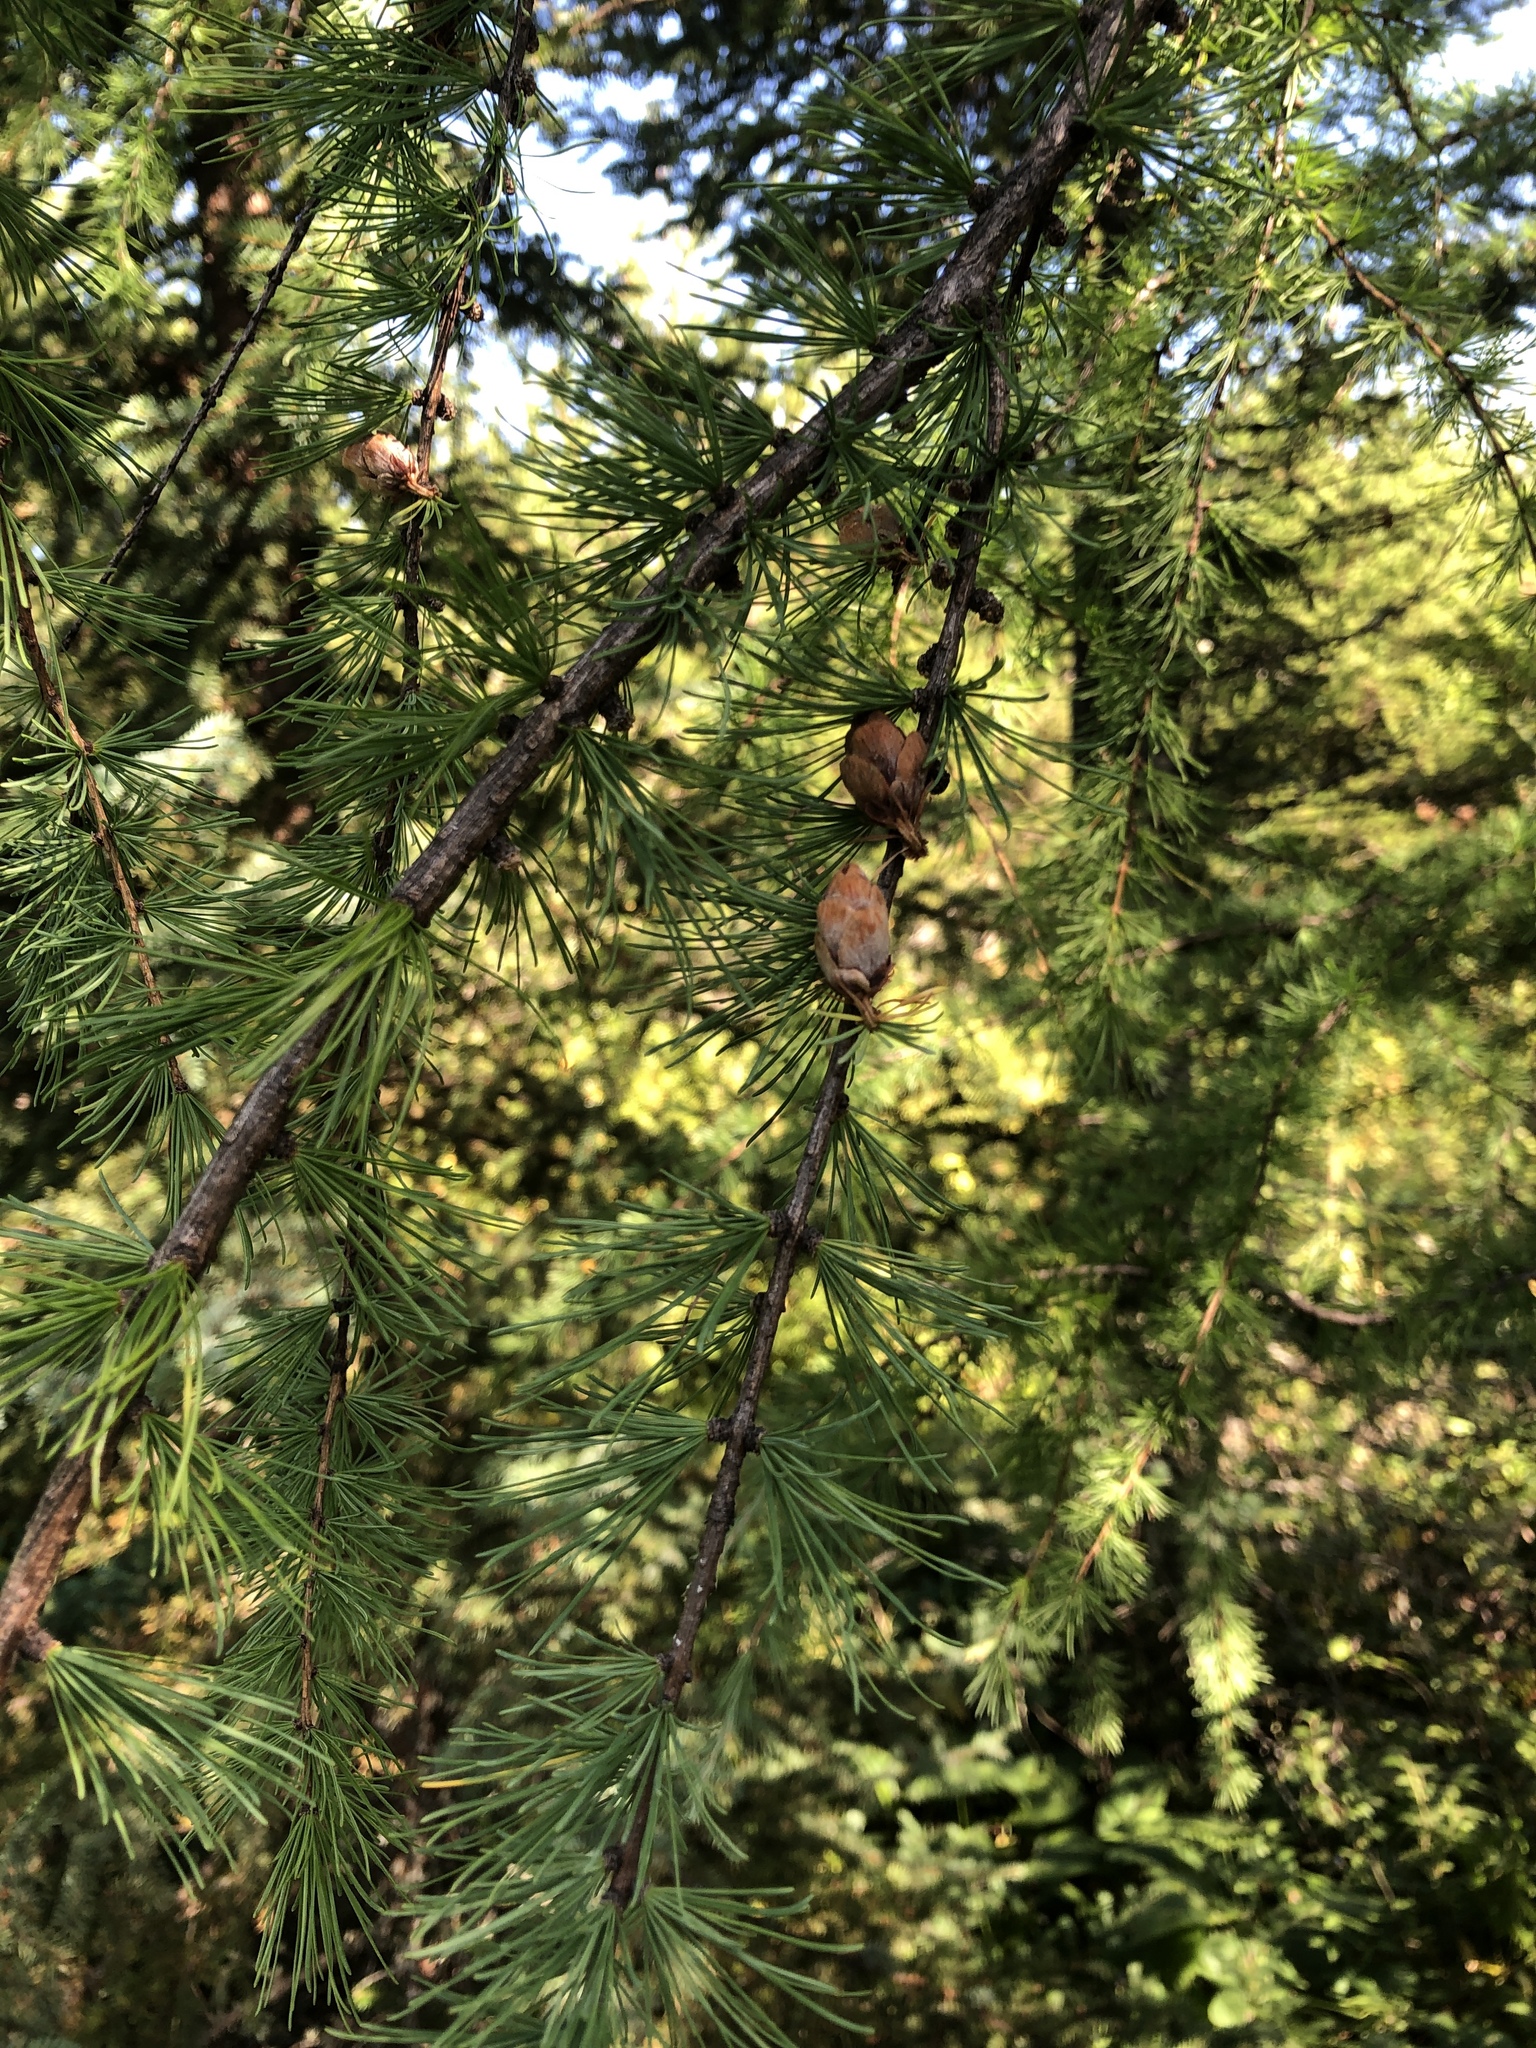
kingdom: Plantae
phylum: Tracheophyta
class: Pinopsida
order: Pinales
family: Pinaceae
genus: Larix
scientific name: Larix laricina
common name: American larch
